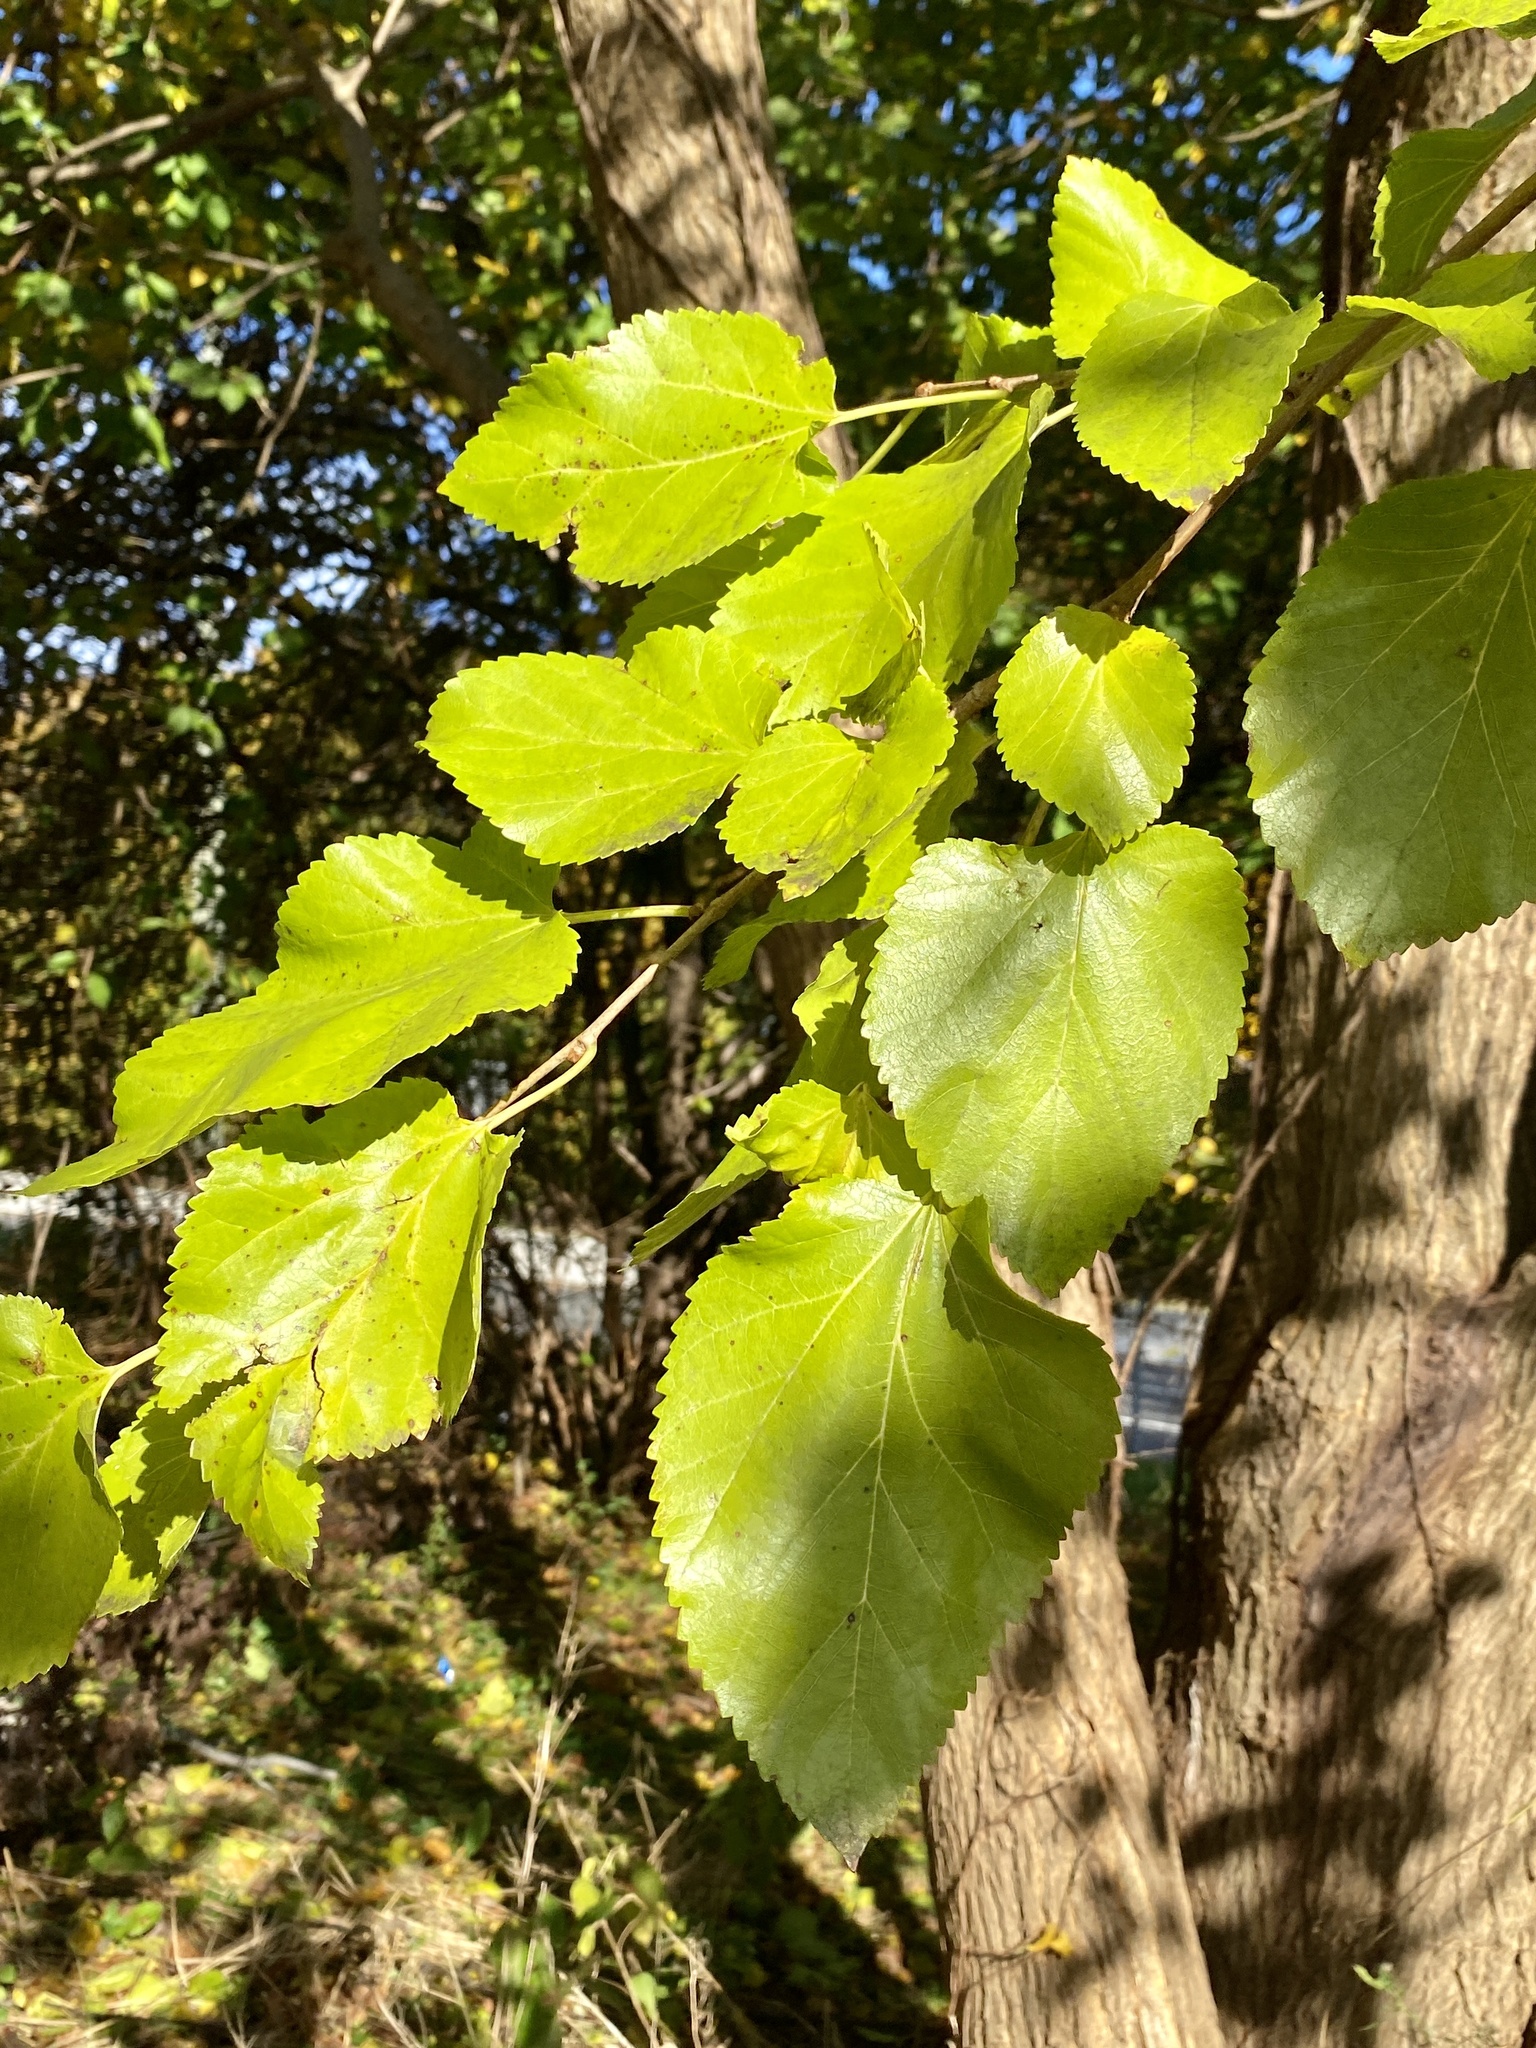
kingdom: Plantae
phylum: Tracheophyta
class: Magnoliopsida
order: Rosales
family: Moraceae
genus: Morus
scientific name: Morus alba
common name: White mulberry
